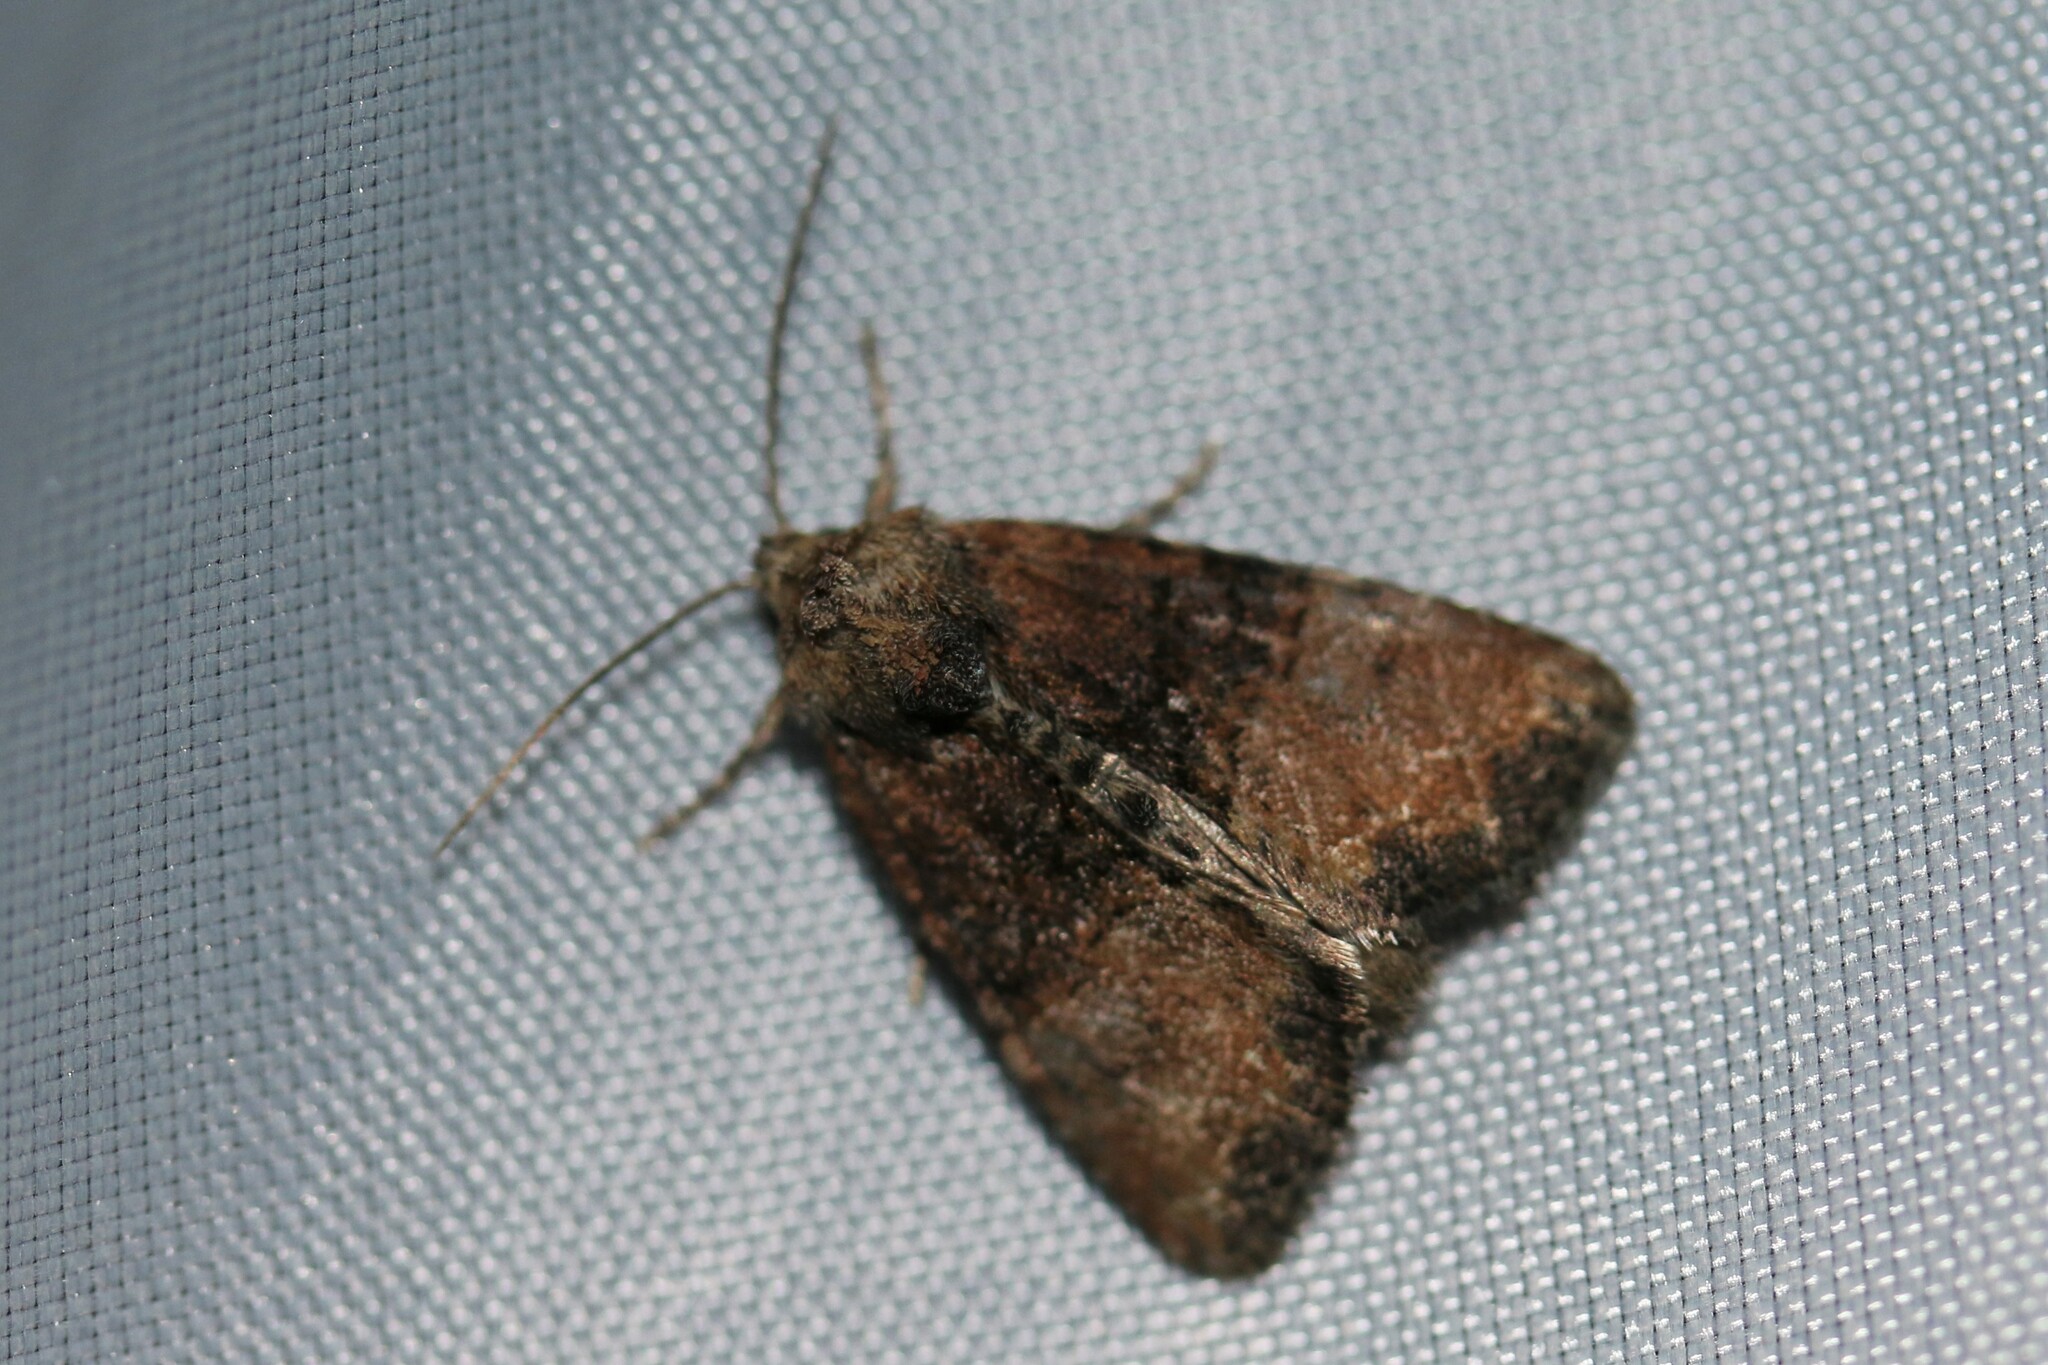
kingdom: Animalia
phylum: Arthropoda
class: Insecta
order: Lepidoptera
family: Noctuidae
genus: Mesoligia
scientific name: Mesoligia furuncula
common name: Cloaked minor
